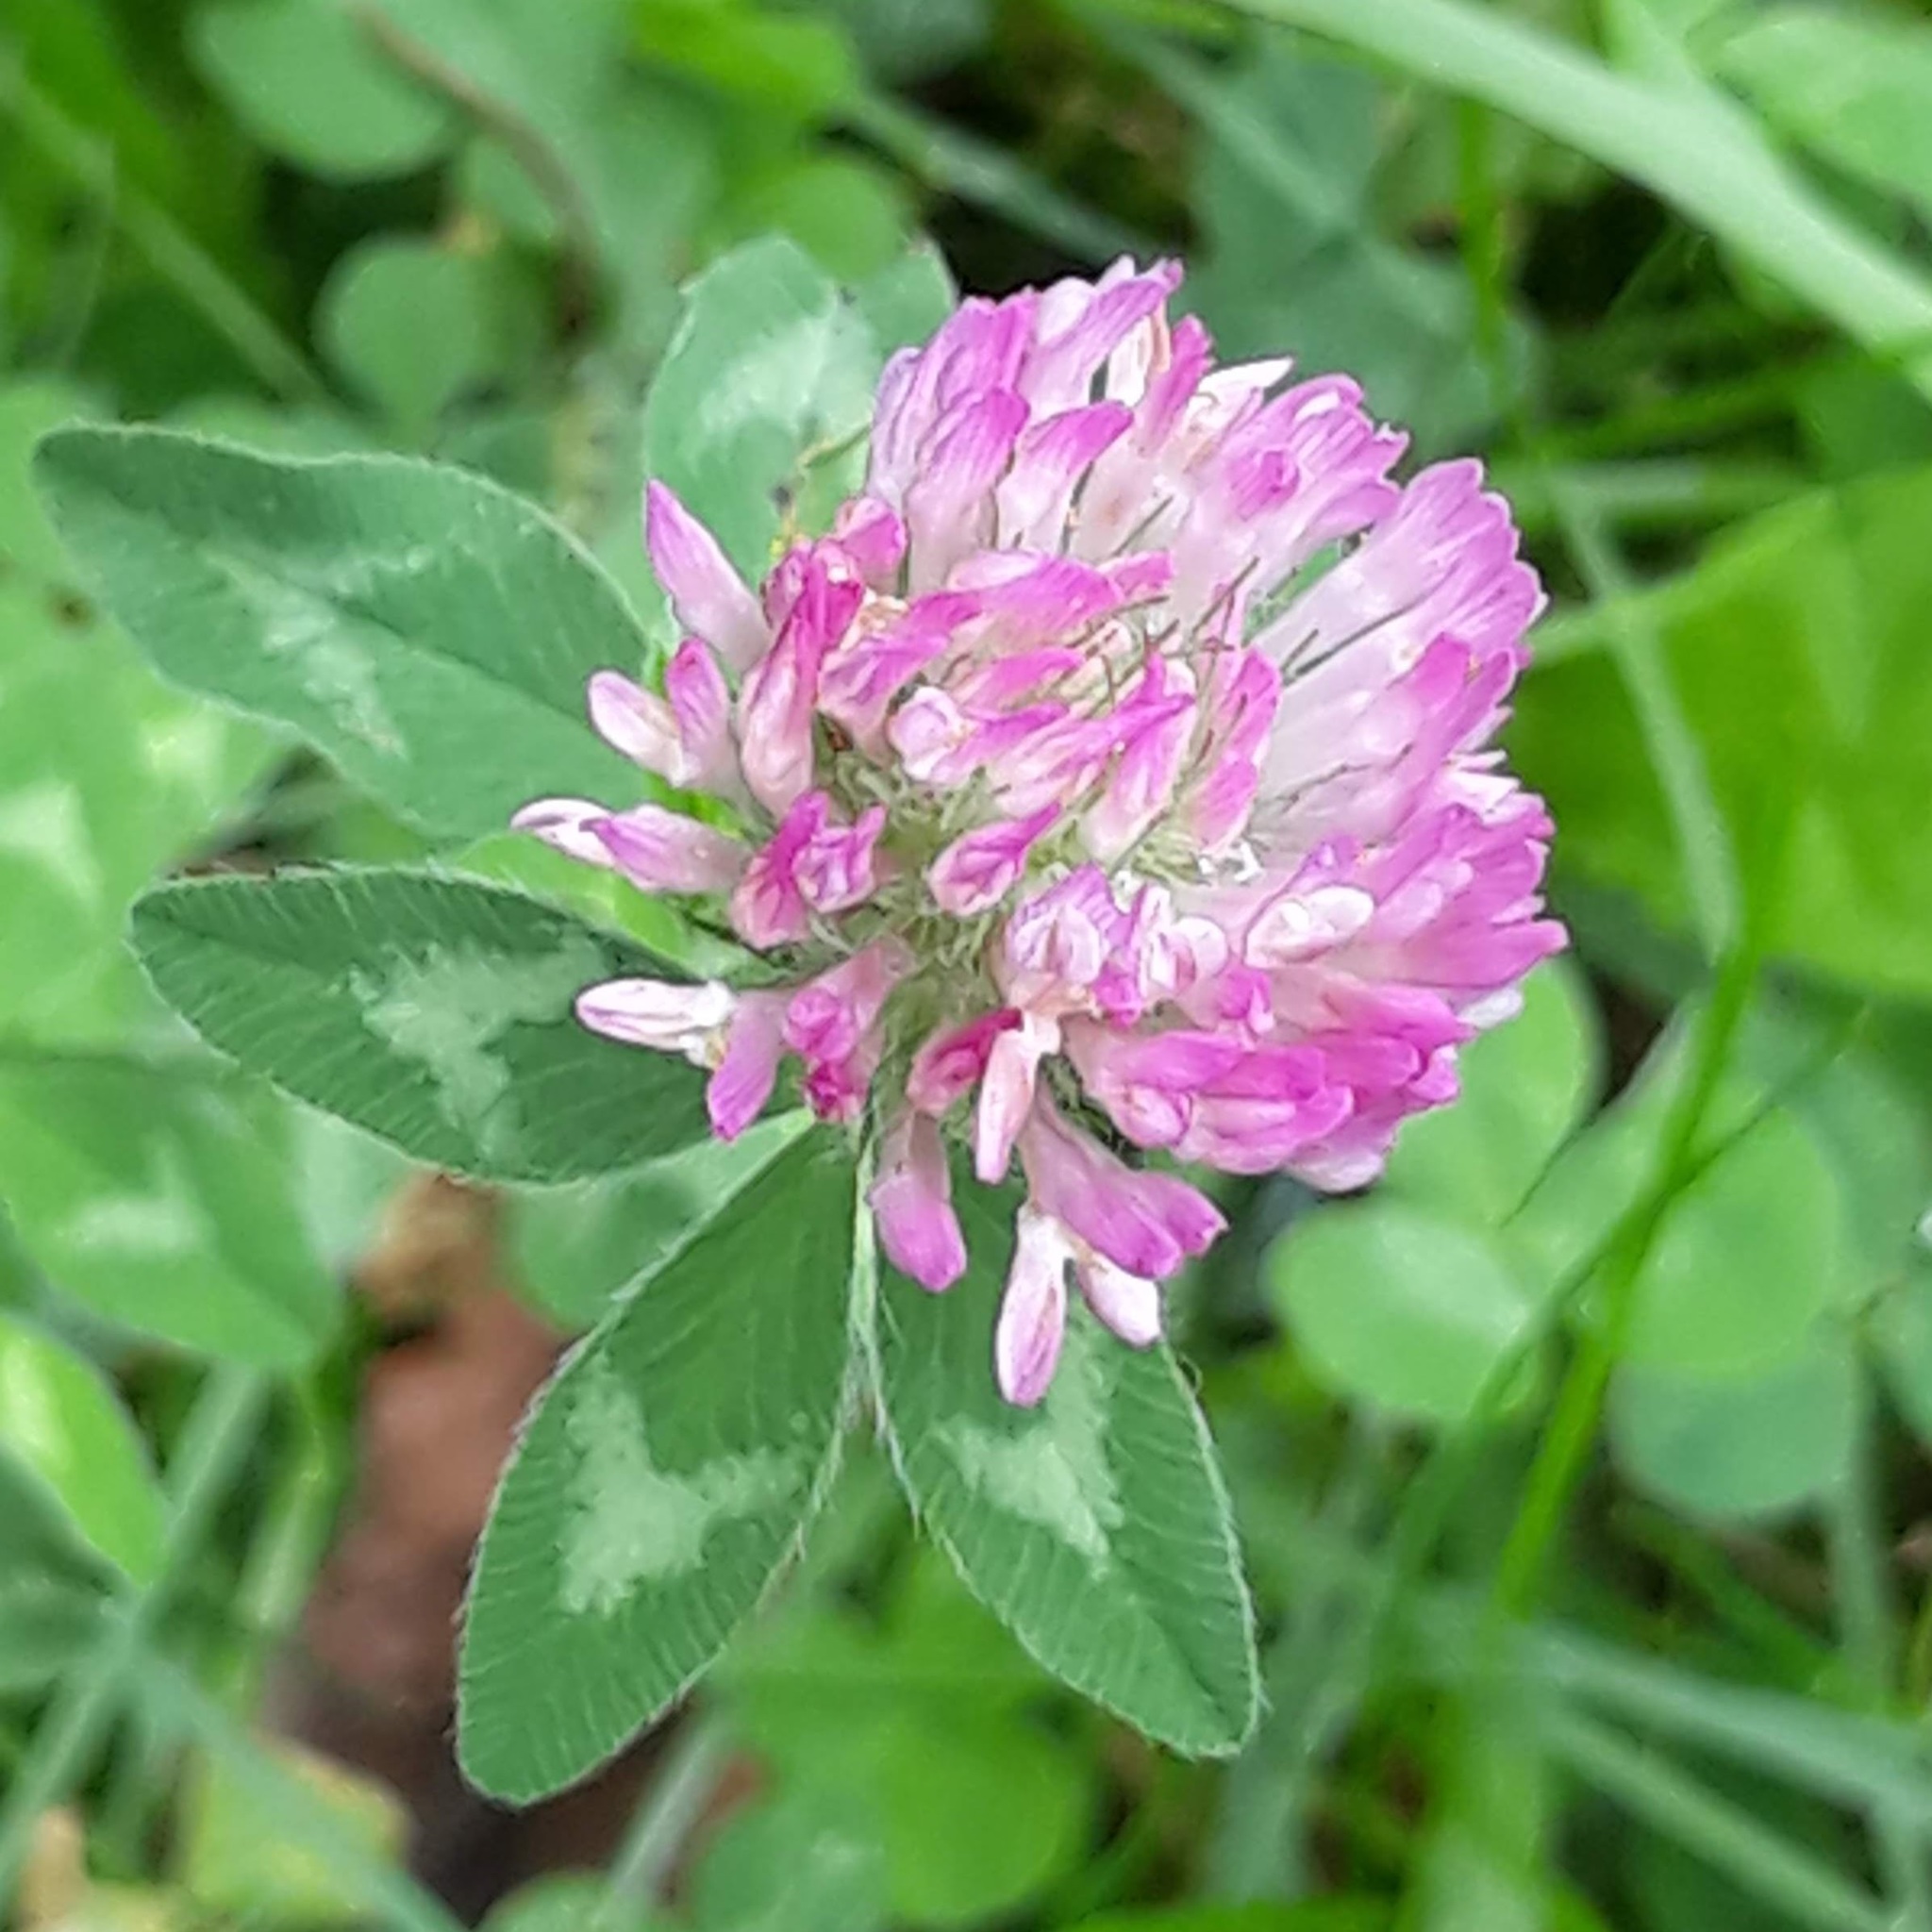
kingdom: Plantae
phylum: Tracheophyta
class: Magnoliopsida
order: Fabales
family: Fabaceae
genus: Trifolium
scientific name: Trifolium pratense
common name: Red clover
